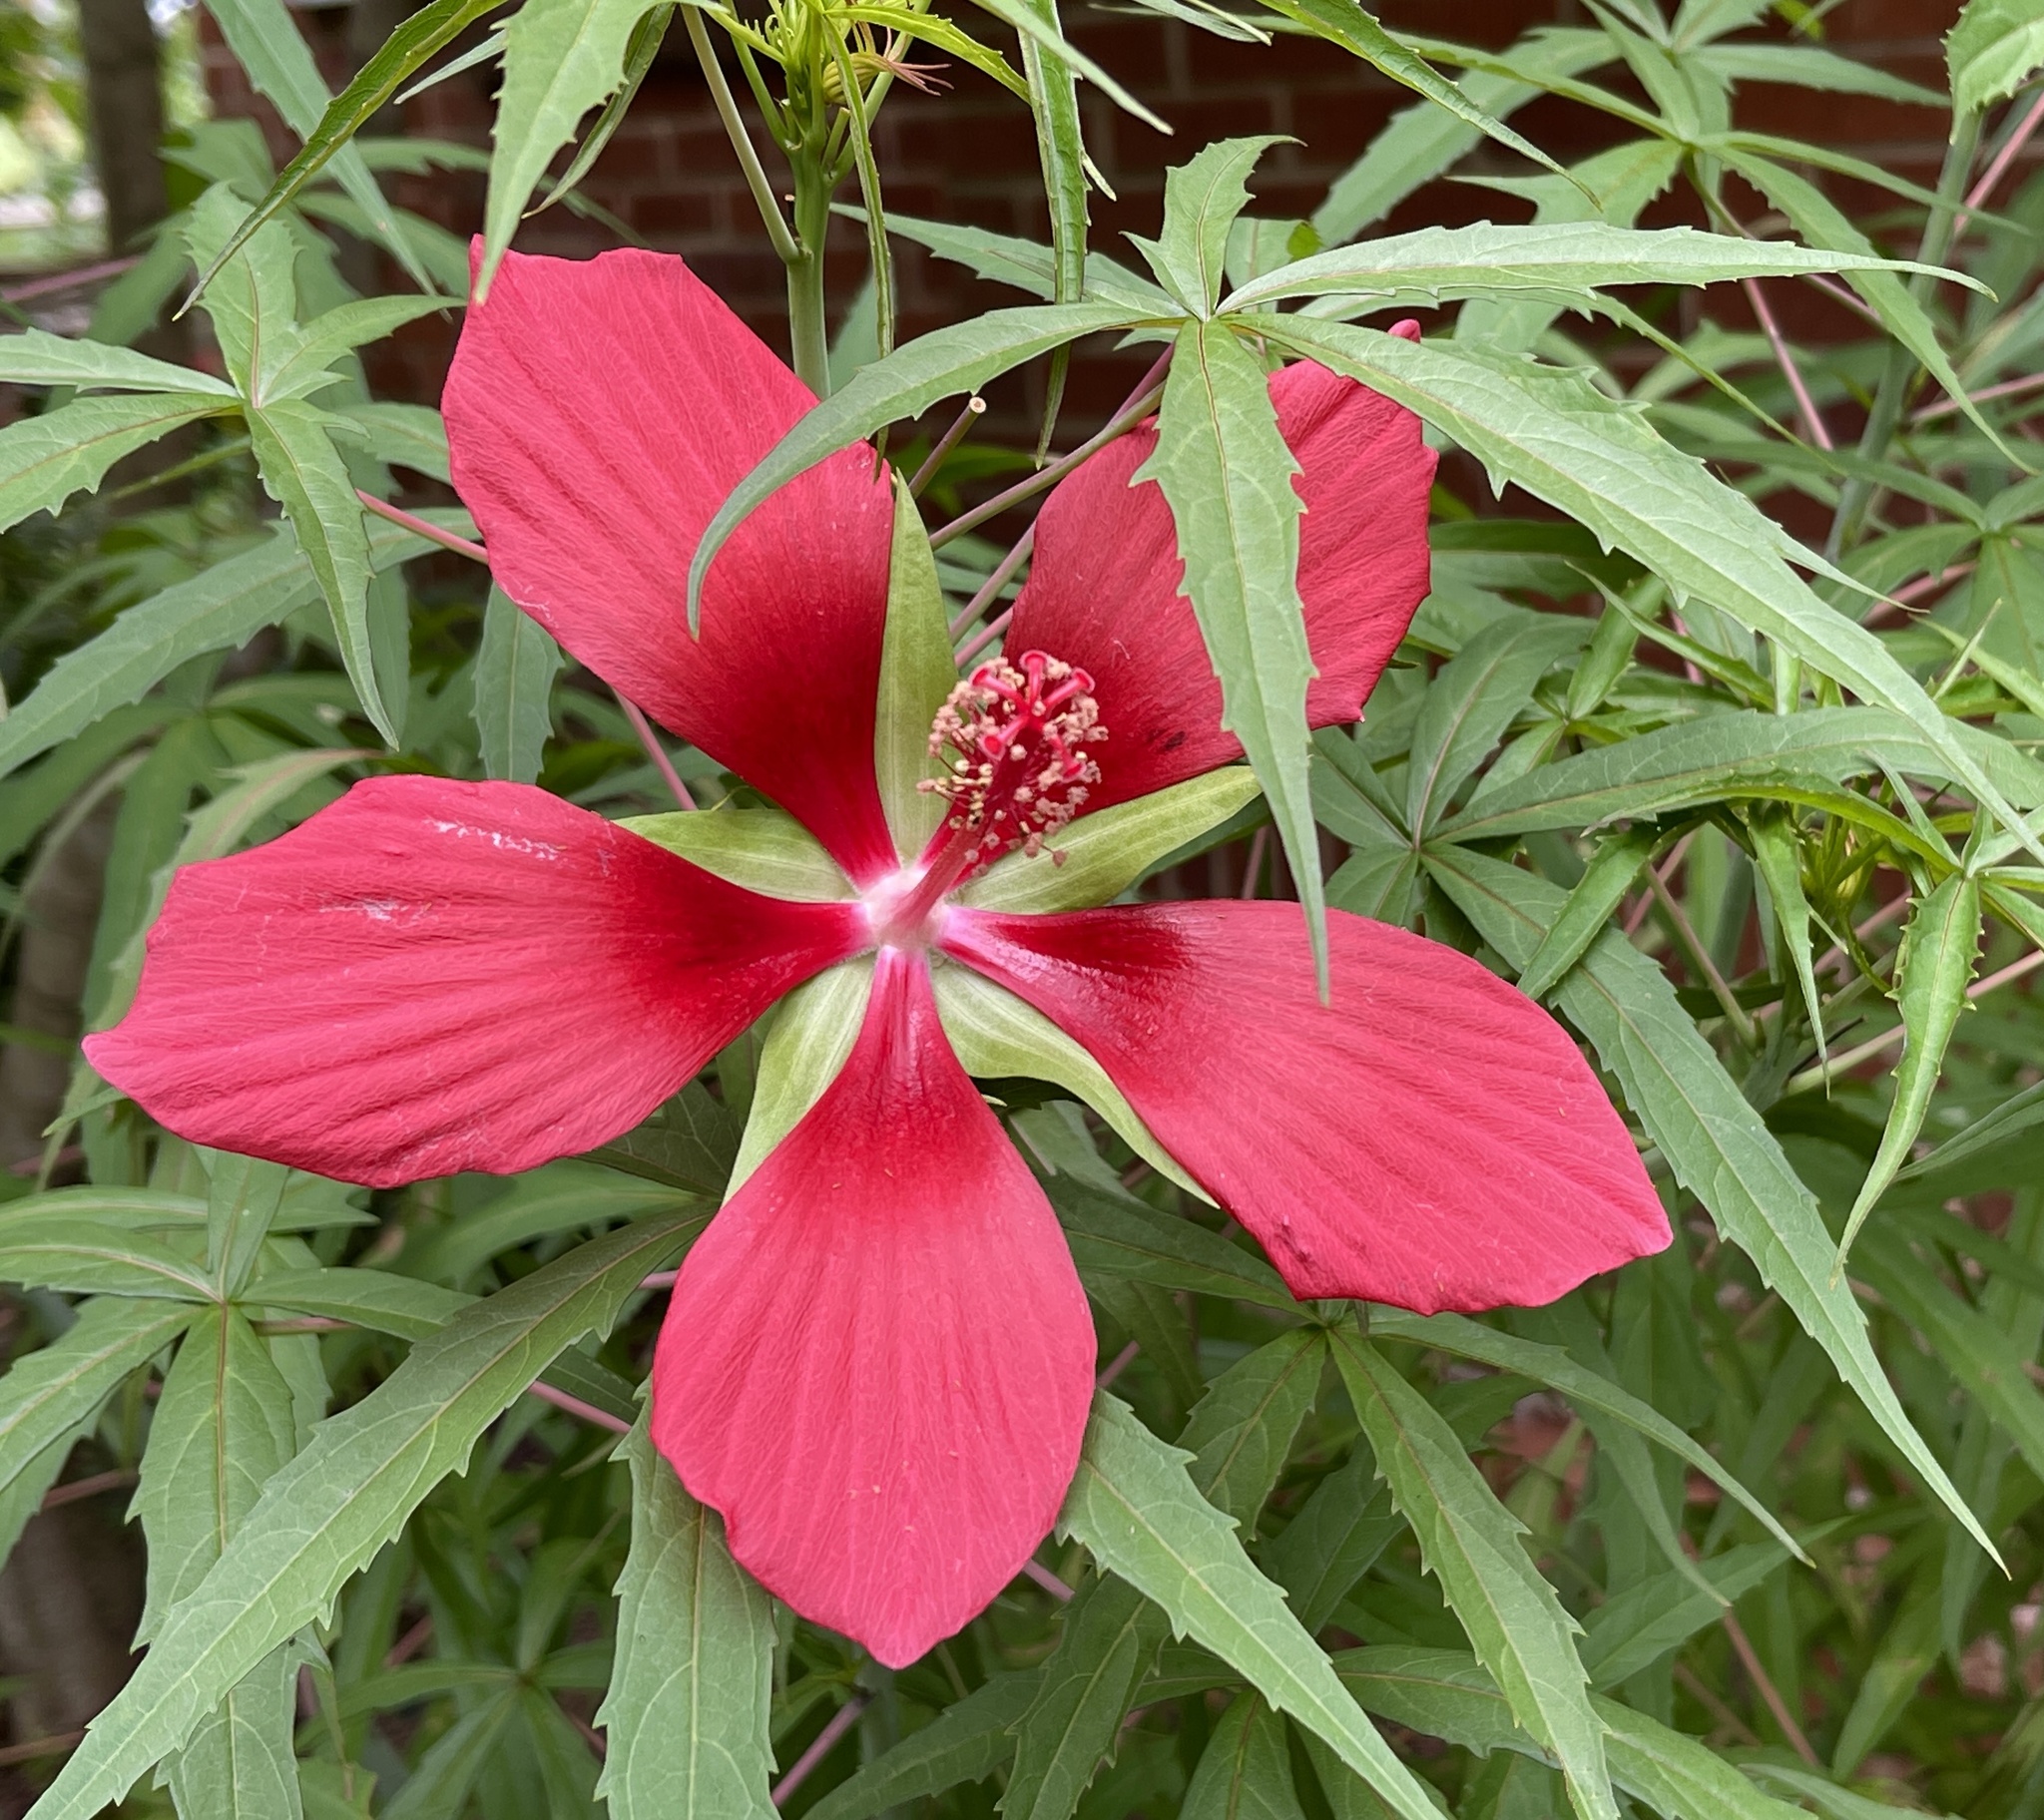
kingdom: Plantae
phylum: Tracheophyta
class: Magnoliopsida
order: Malvales
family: Malvaceae
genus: Hibiscus
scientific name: Hibiscus coccineus
